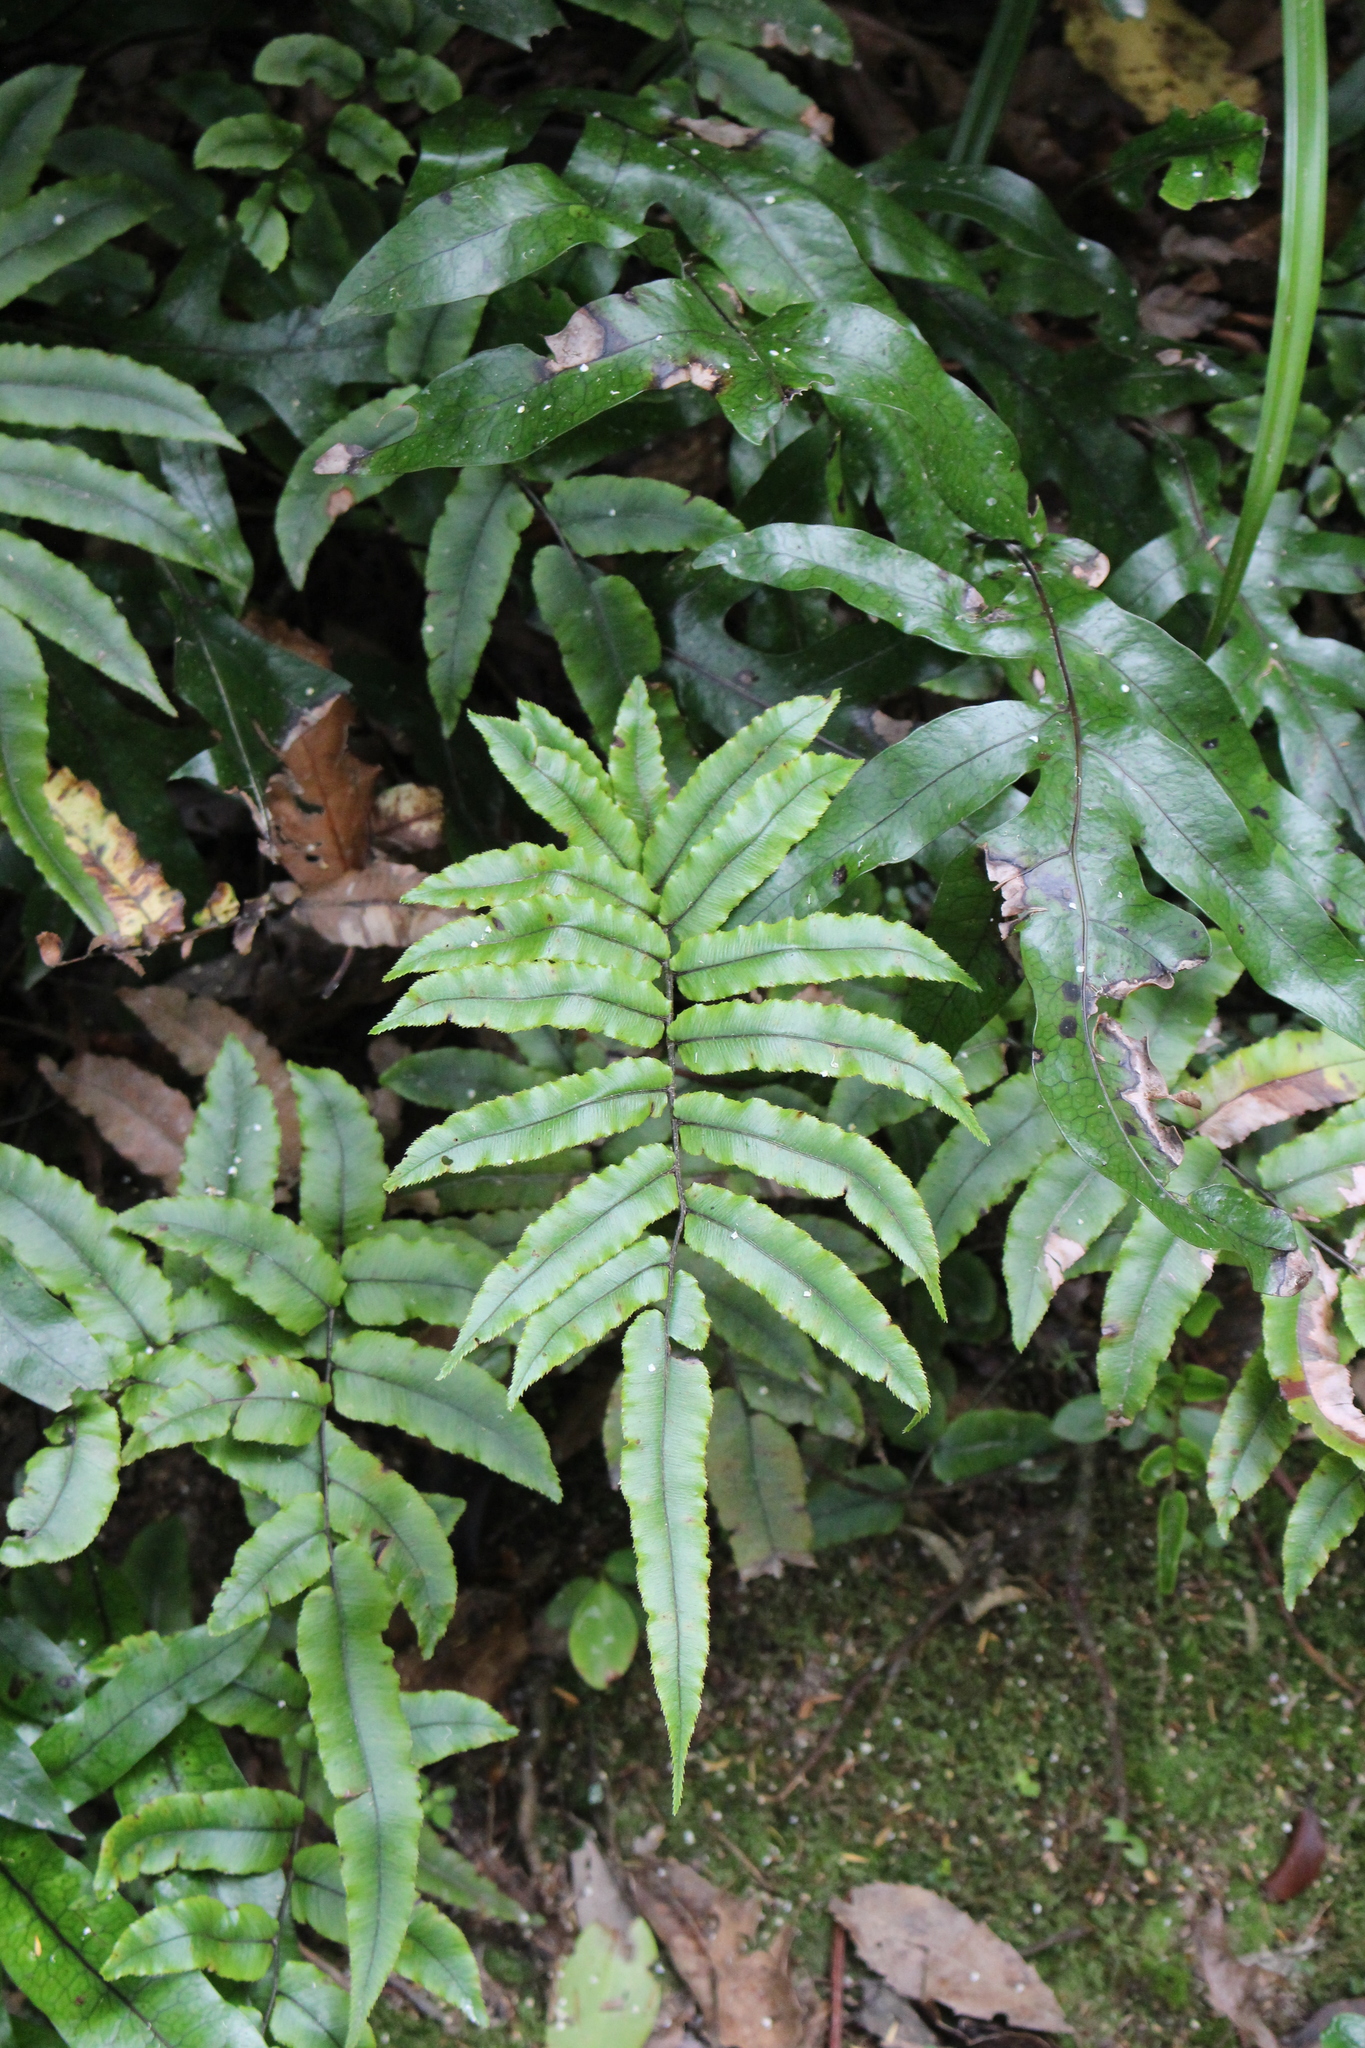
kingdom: Plantae
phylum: Tracheophyta
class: Polypodiopsida
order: Polypodiales
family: Blechnaceae
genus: Parablechnum
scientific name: Parablechnum procerum
